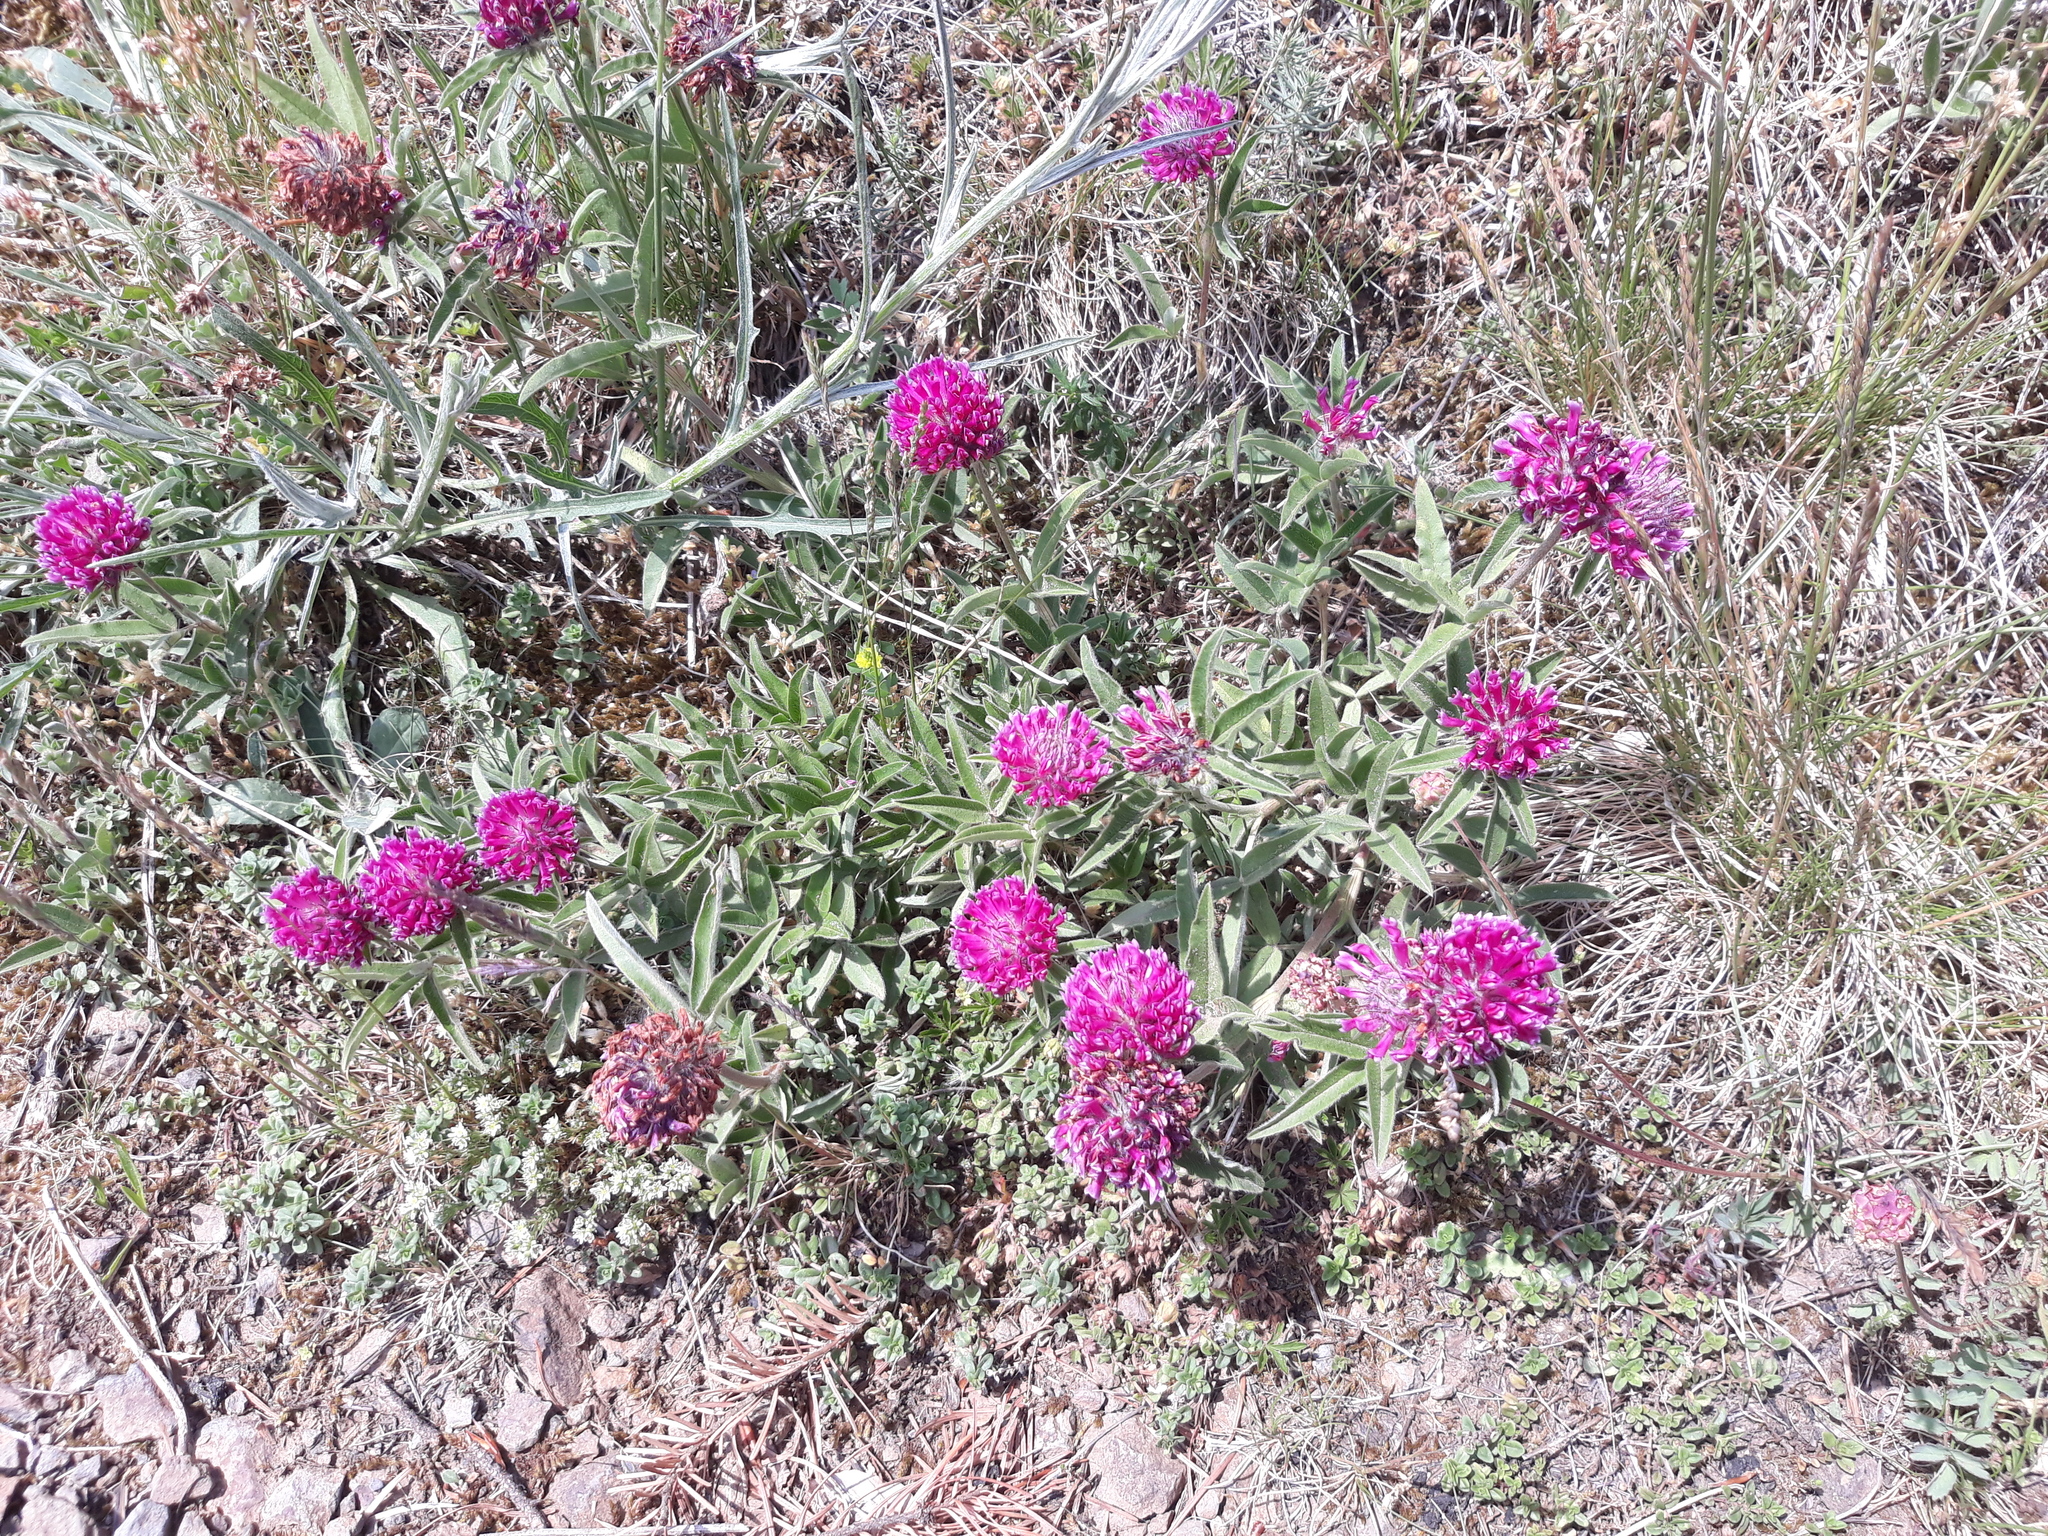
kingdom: Plantae
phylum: Tracheophyta
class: Magnoliopsida
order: Fabales
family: Fabaceae
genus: Trifolium
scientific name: Trifolium alpestre
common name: Owl-head clover
